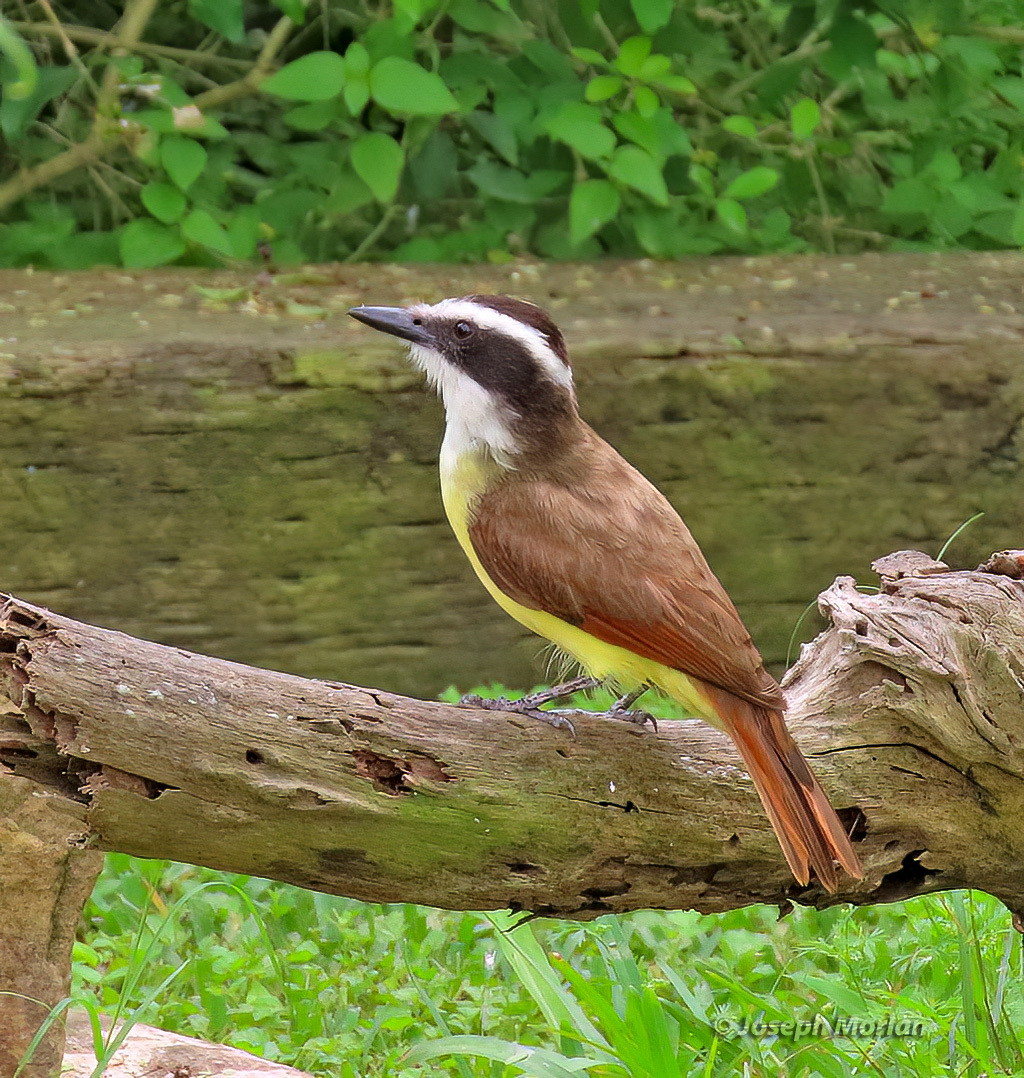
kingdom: Animalia
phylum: Chordata
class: Aves
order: Passeriformes
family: Tyrannidae
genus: Pitangus
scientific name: Pitangus sulphuratus
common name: Great kiskadee
